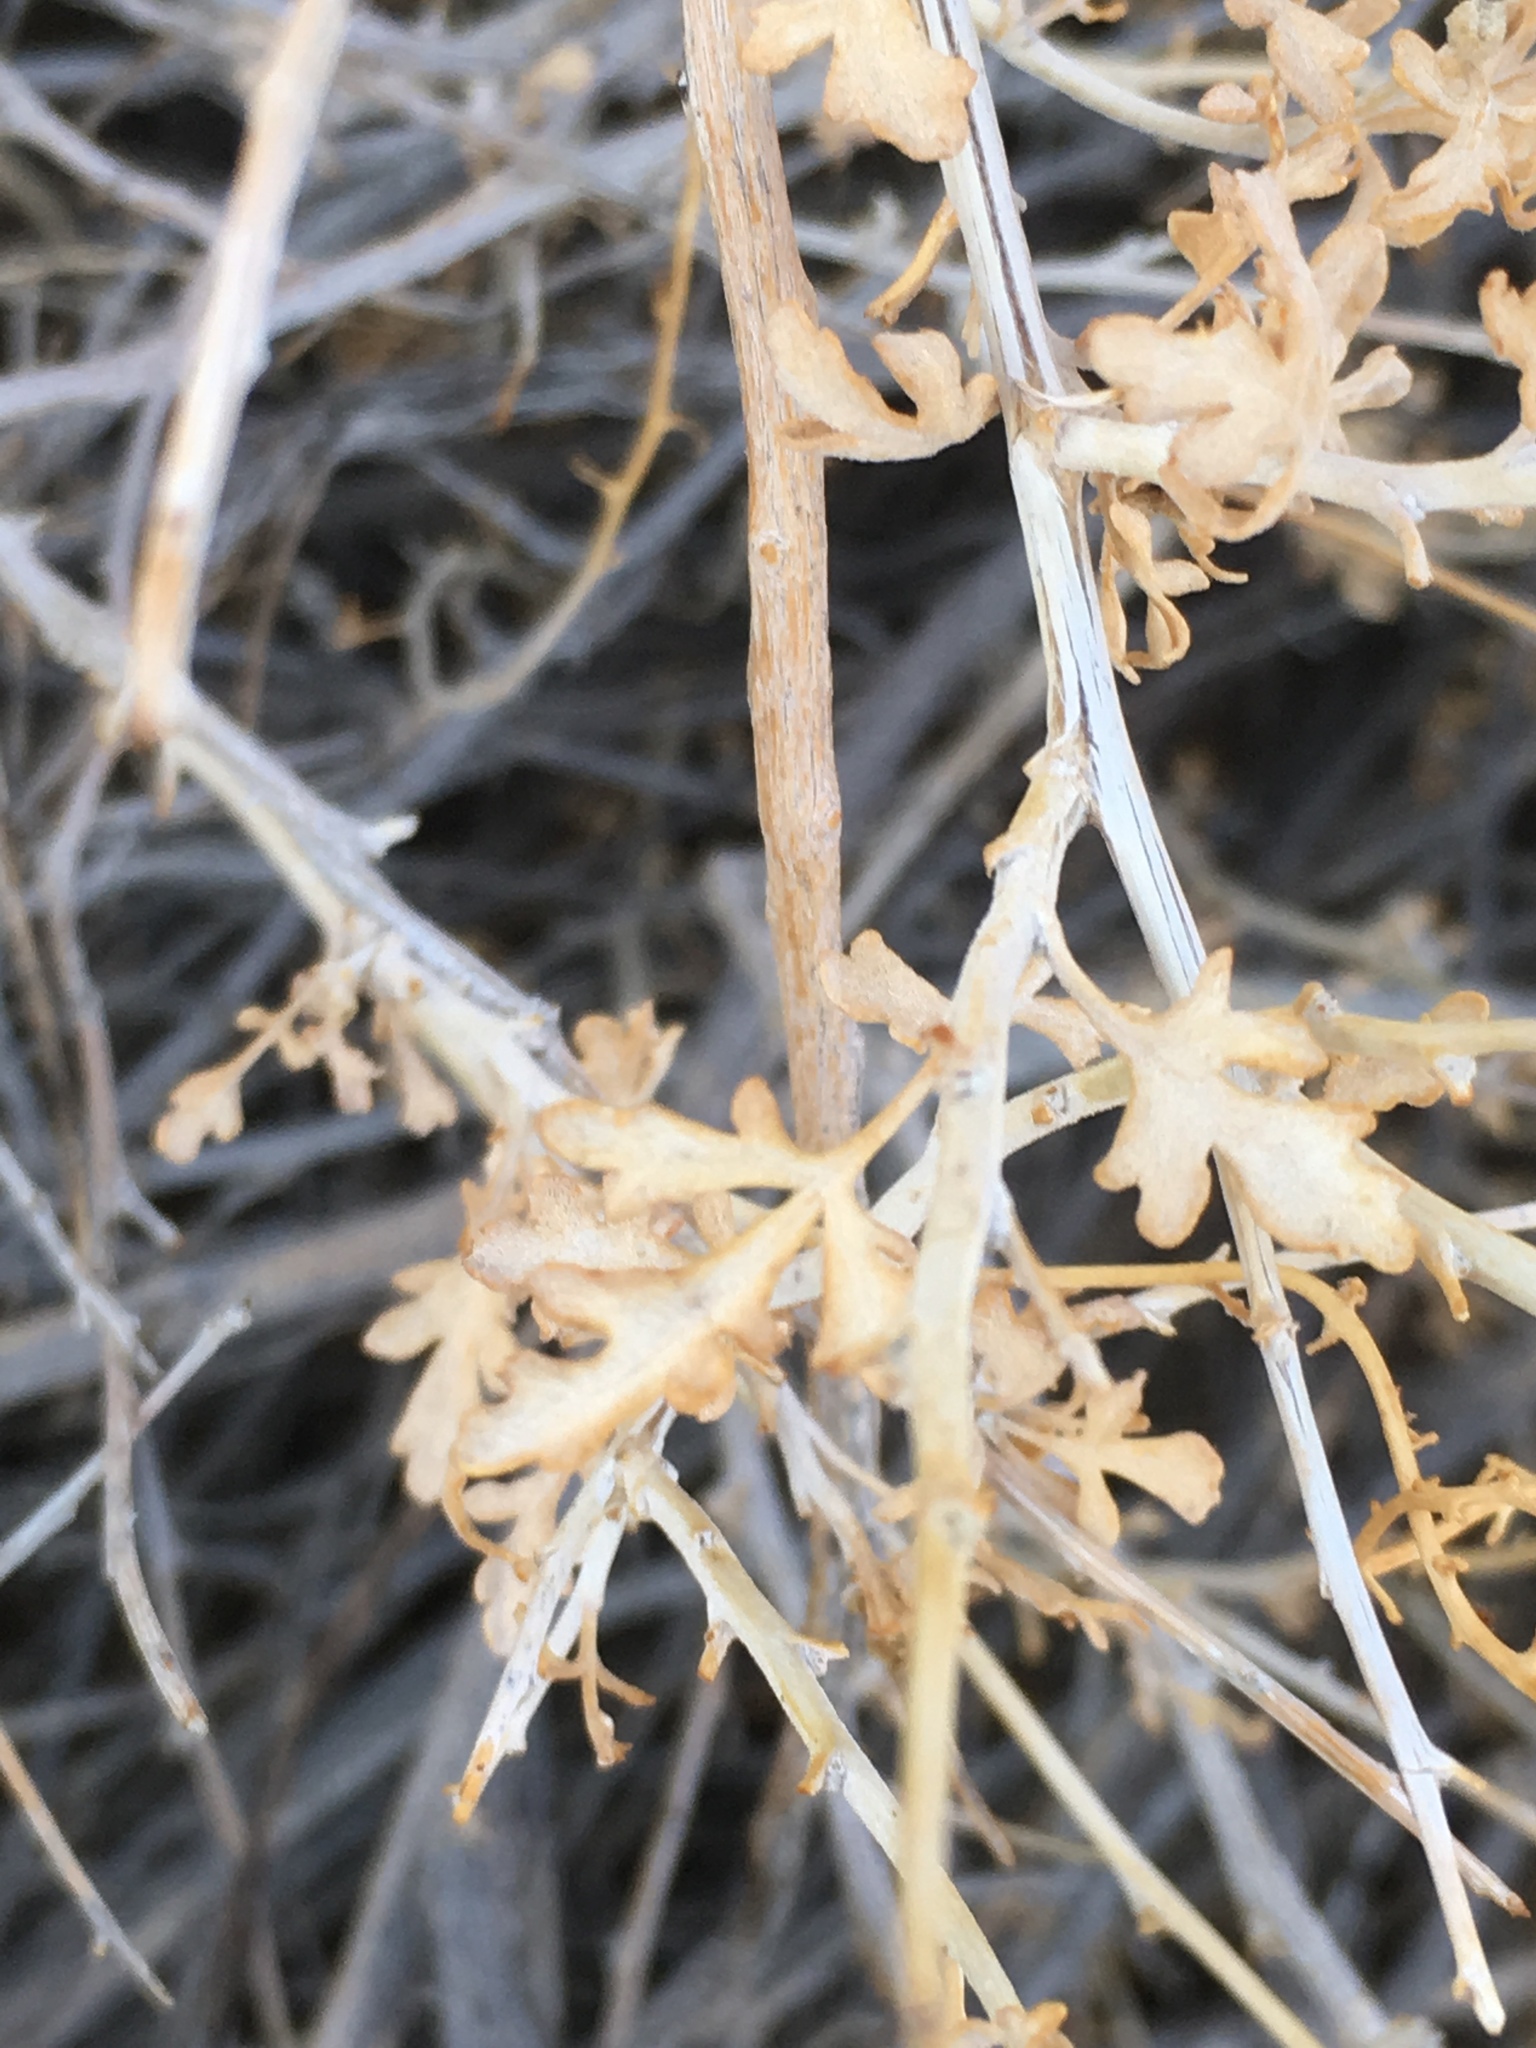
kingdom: Plantae
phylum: Tracheophyta
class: Magnoliopsida
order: Asterales
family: Asteraceae
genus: Ambrosia
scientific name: Ambrosia dumosa
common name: Bur-sage
